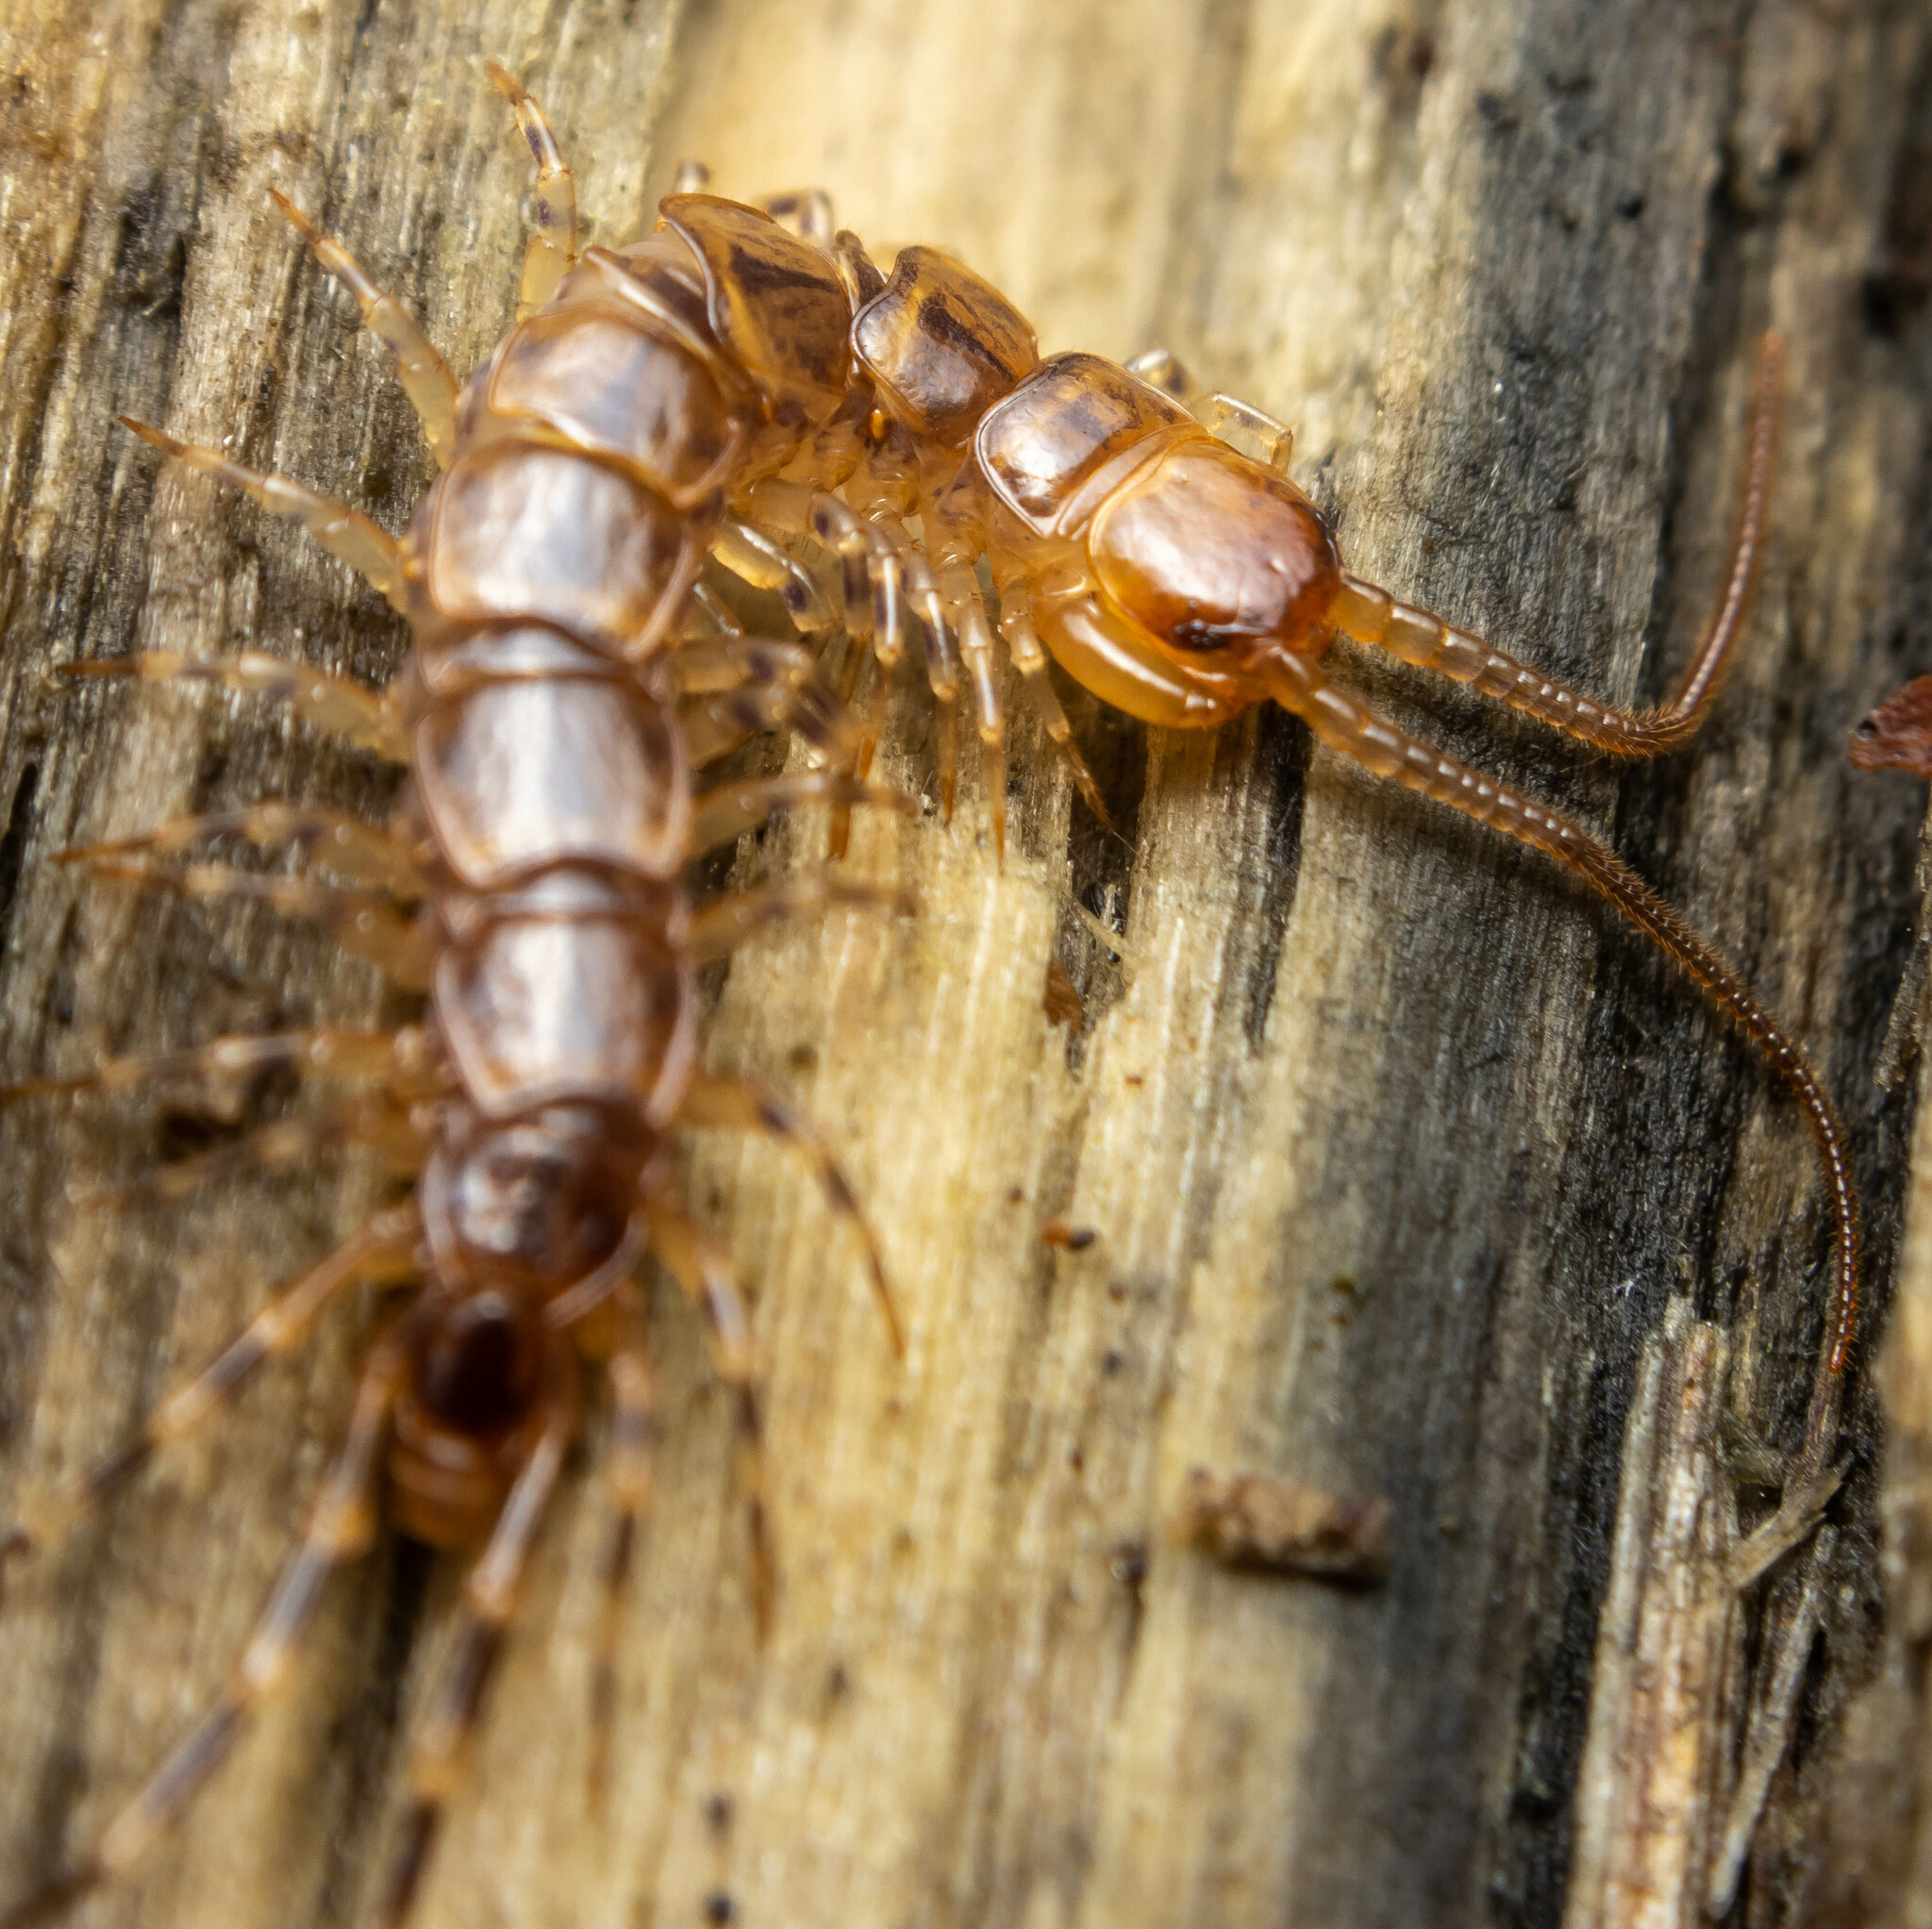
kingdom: Animalia
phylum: Arthropoda
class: Chilopoda
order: Lithobiomorpha
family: Lithobiidae
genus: Lithobius
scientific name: Lithobius variegatus
